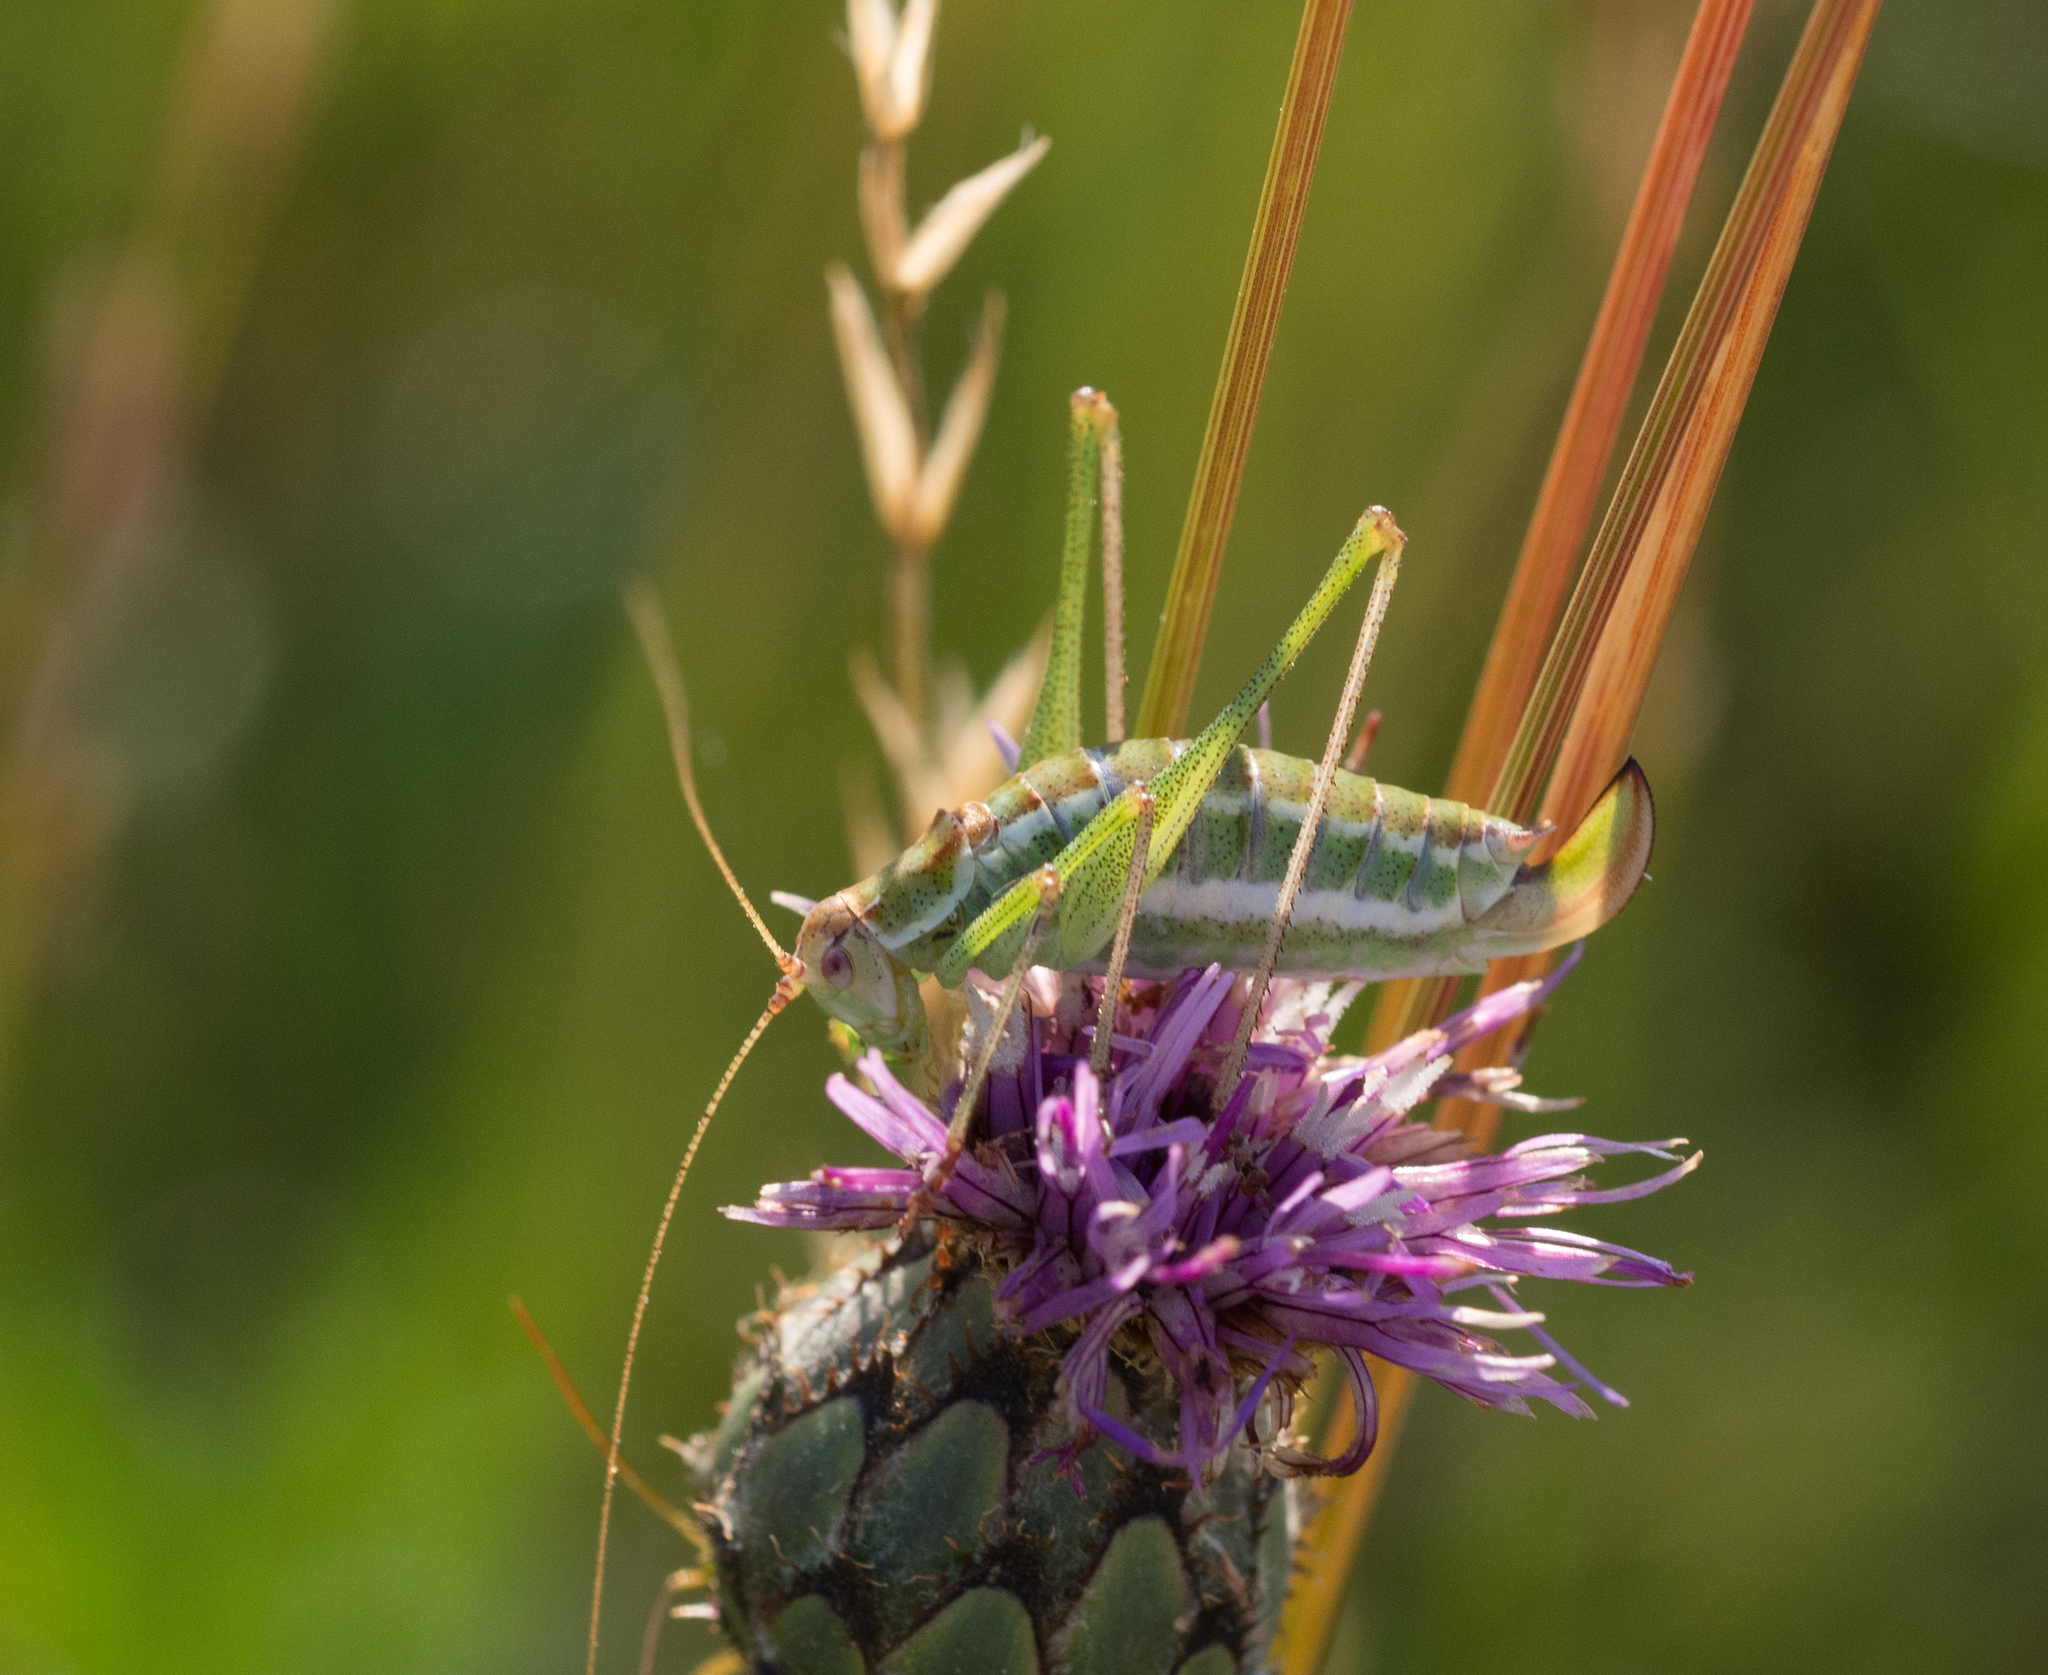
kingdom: Animalia
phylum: Arthropoda
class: Insecta
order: Orthoptera
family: Tettigoniidae
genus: Leptophyes
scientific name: Leptophyes albovittata
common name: Striped bush-cricket
